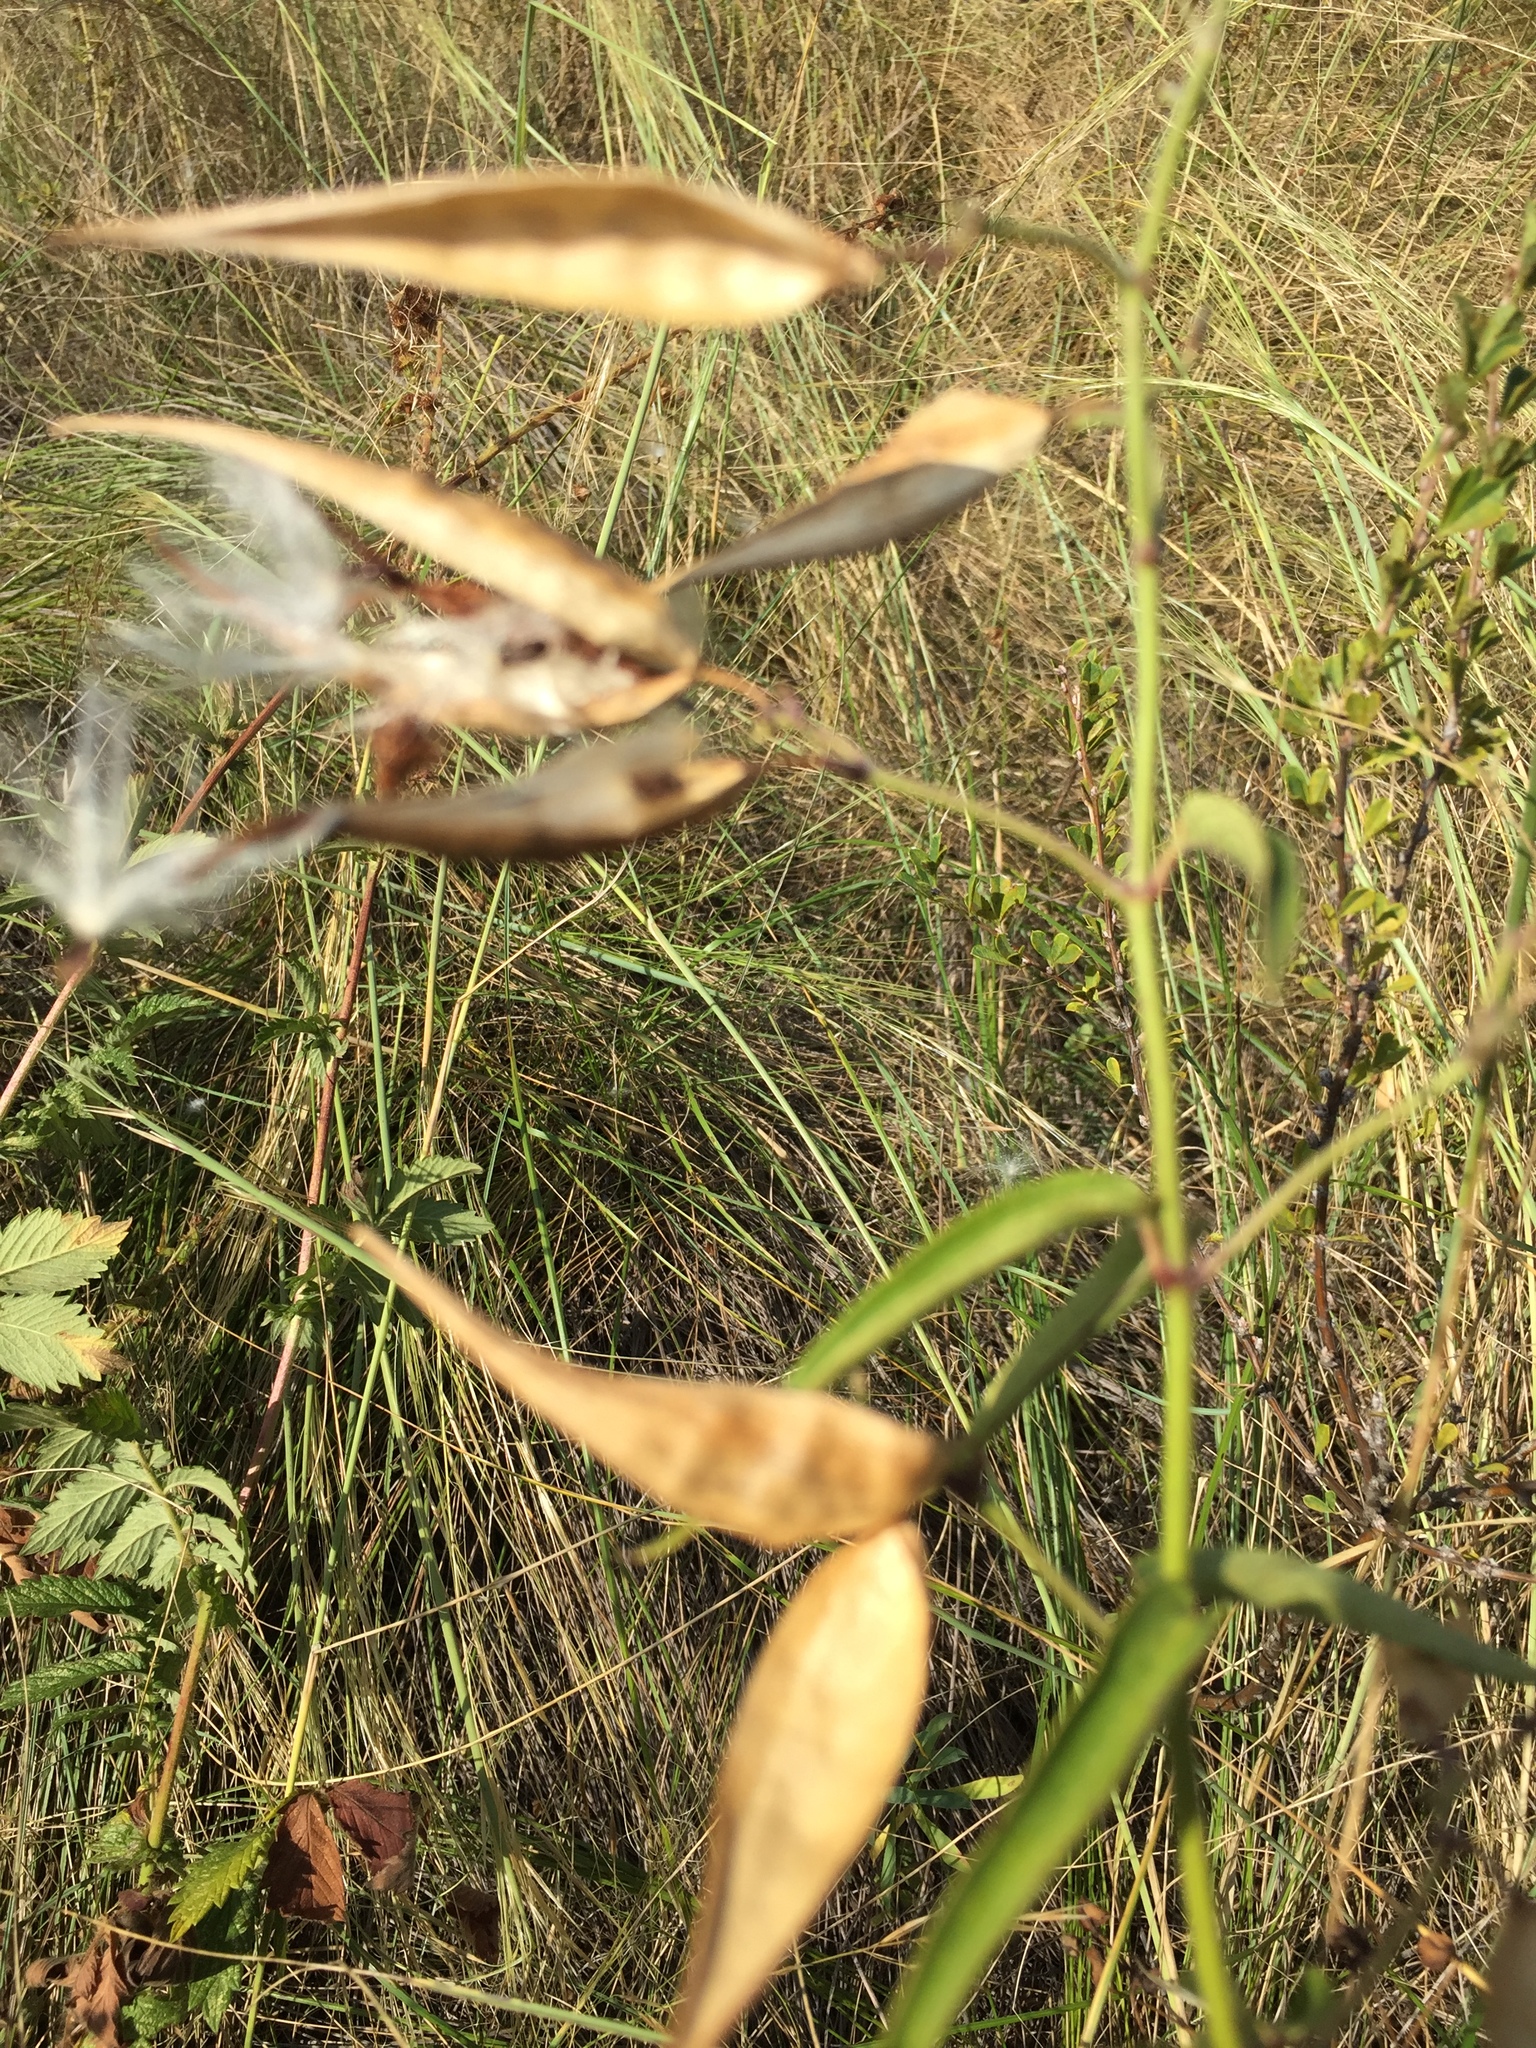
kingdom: Plantae
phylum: Tracheophyta
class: Magnoliopsida
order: Gentianales
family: Apocynaceae
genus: Vincetoxicum
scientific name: Vincetoxicum hirundinaria
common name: White swallowwort
